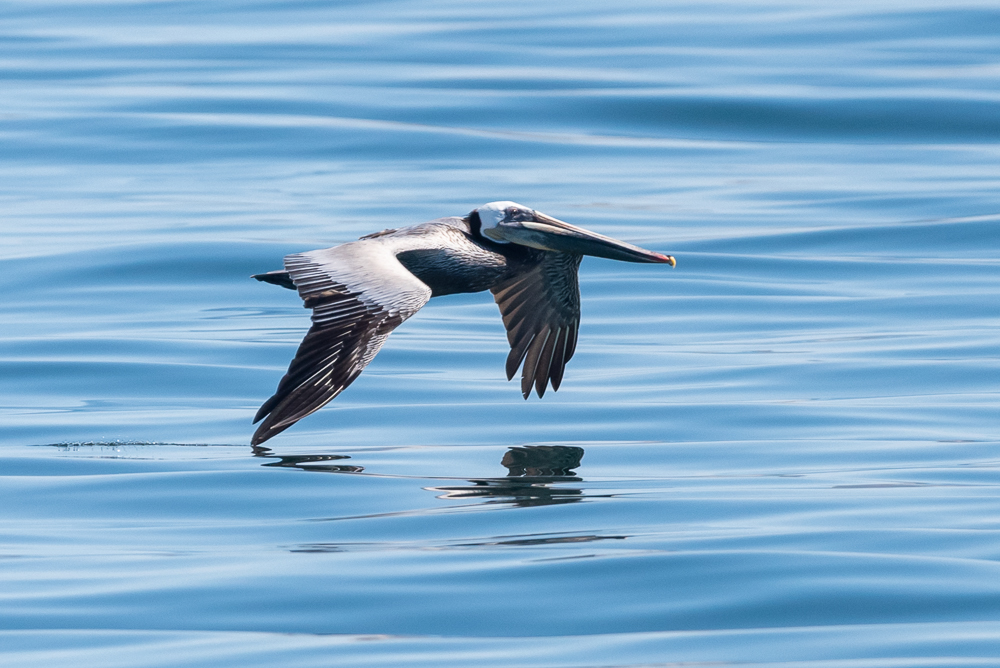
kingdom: Animalia
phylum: Chordata
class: Aves
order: Pelecaniformes
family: Pelecanidae
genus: Pelecanus
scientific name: Pelecanus occidentalis
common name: Brown pelican
